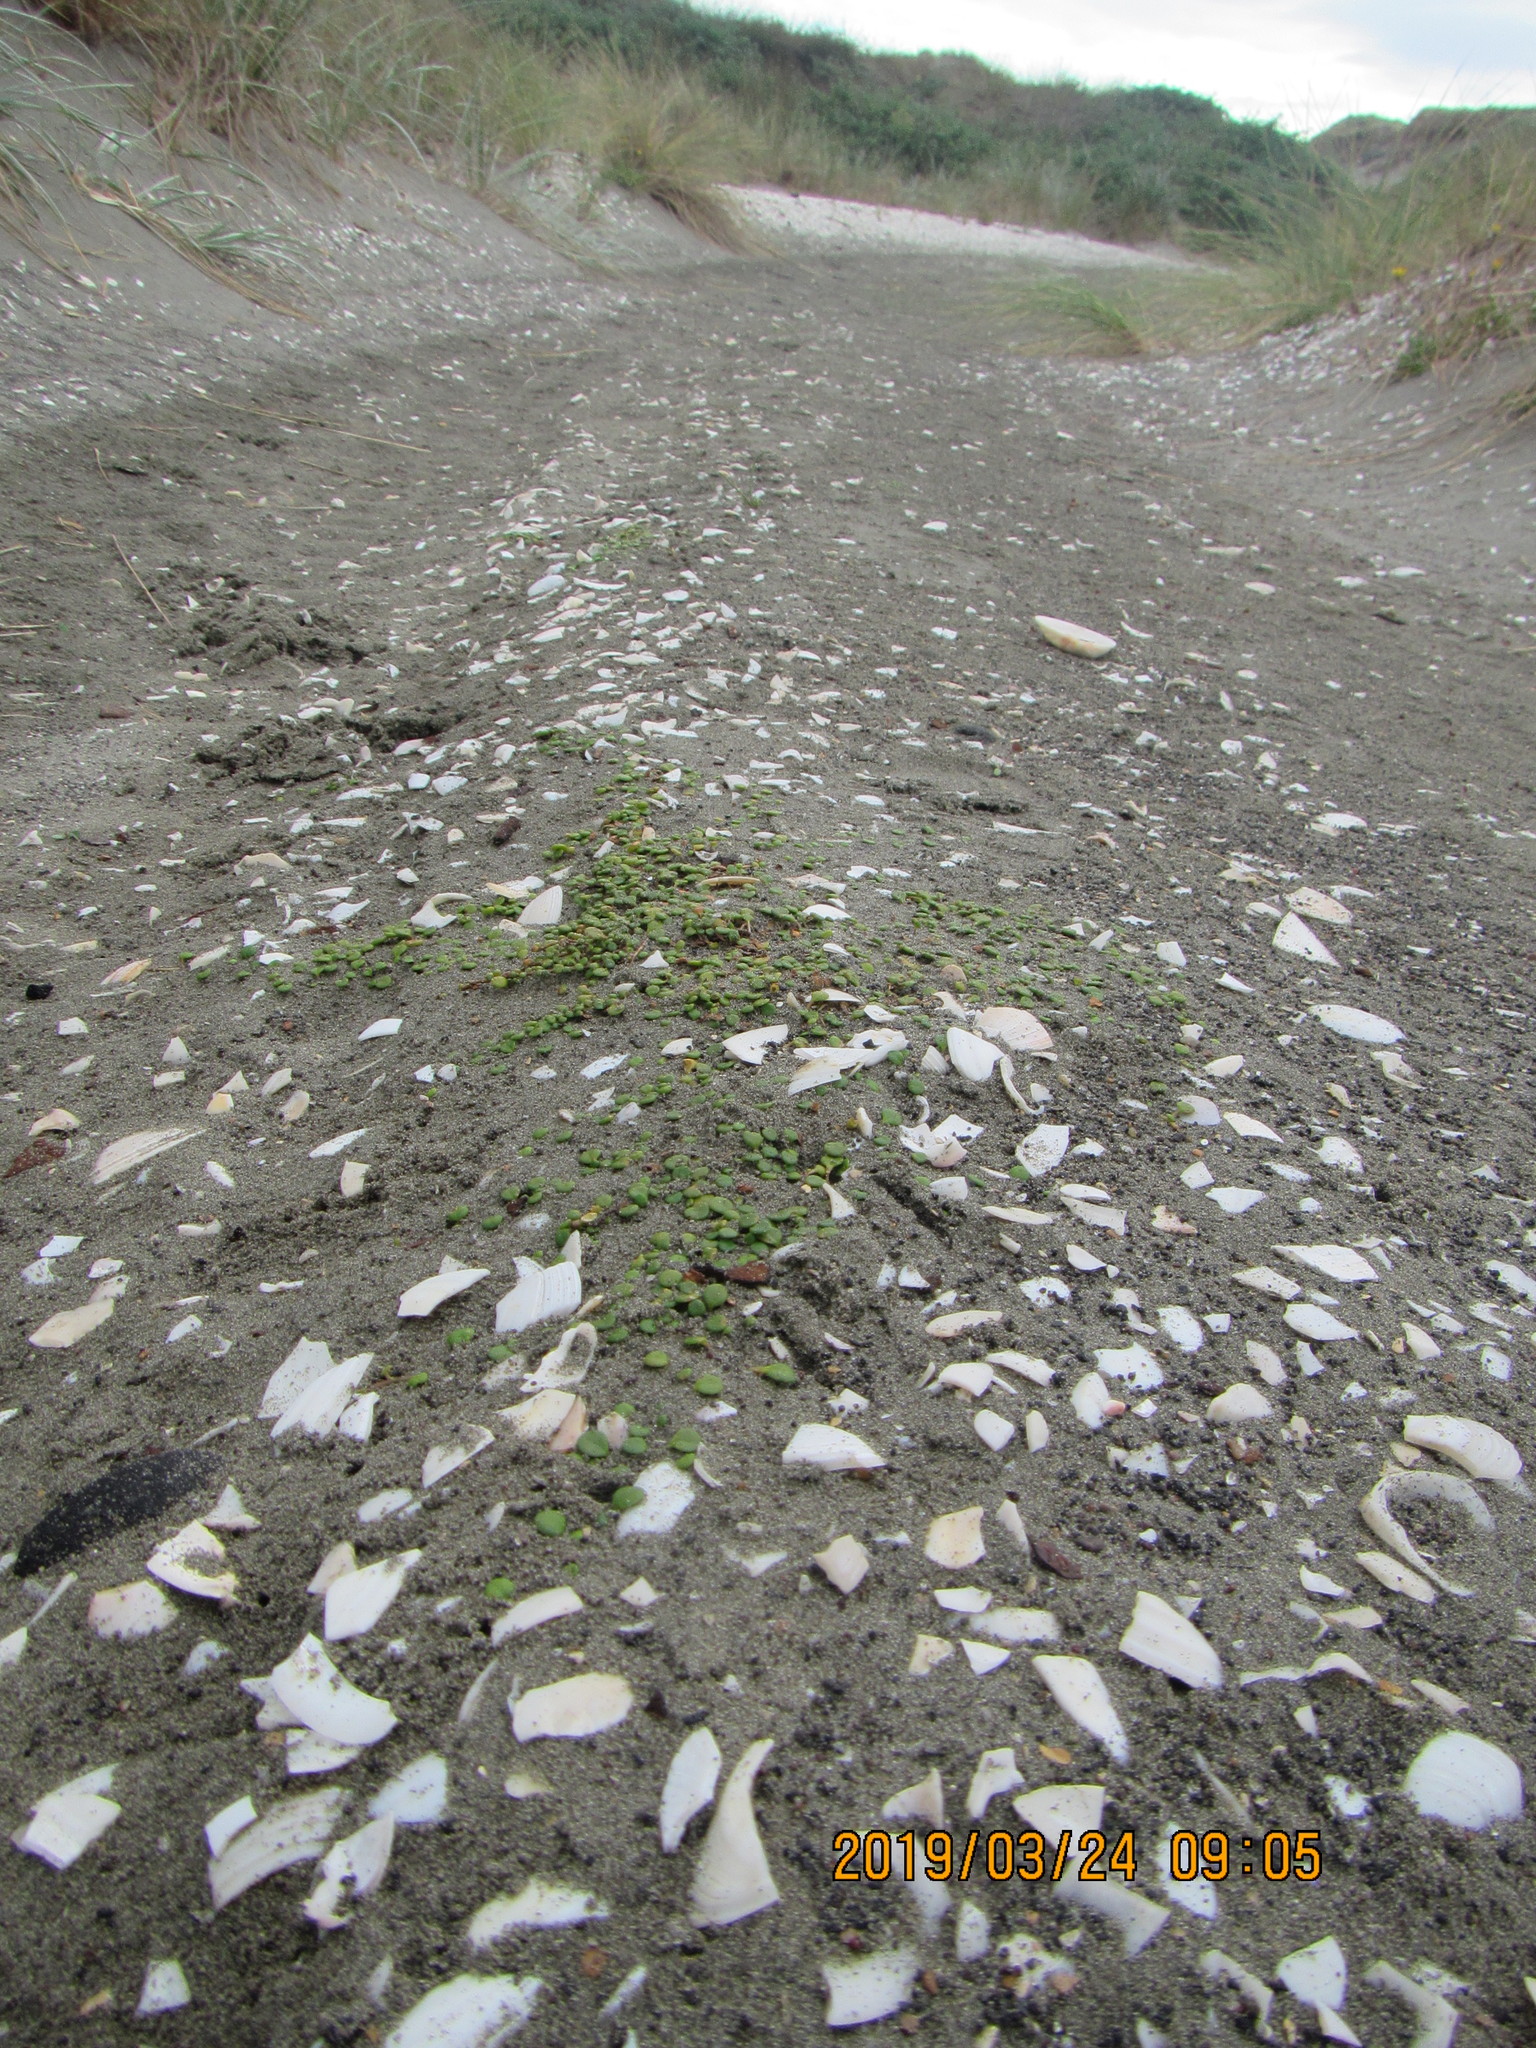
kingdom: Plantae
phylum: Tracheophyta
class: Magnoliopsida
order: Asterales
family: Goodeniaceae
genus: Goodenia
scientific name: Goodenia heenanii
